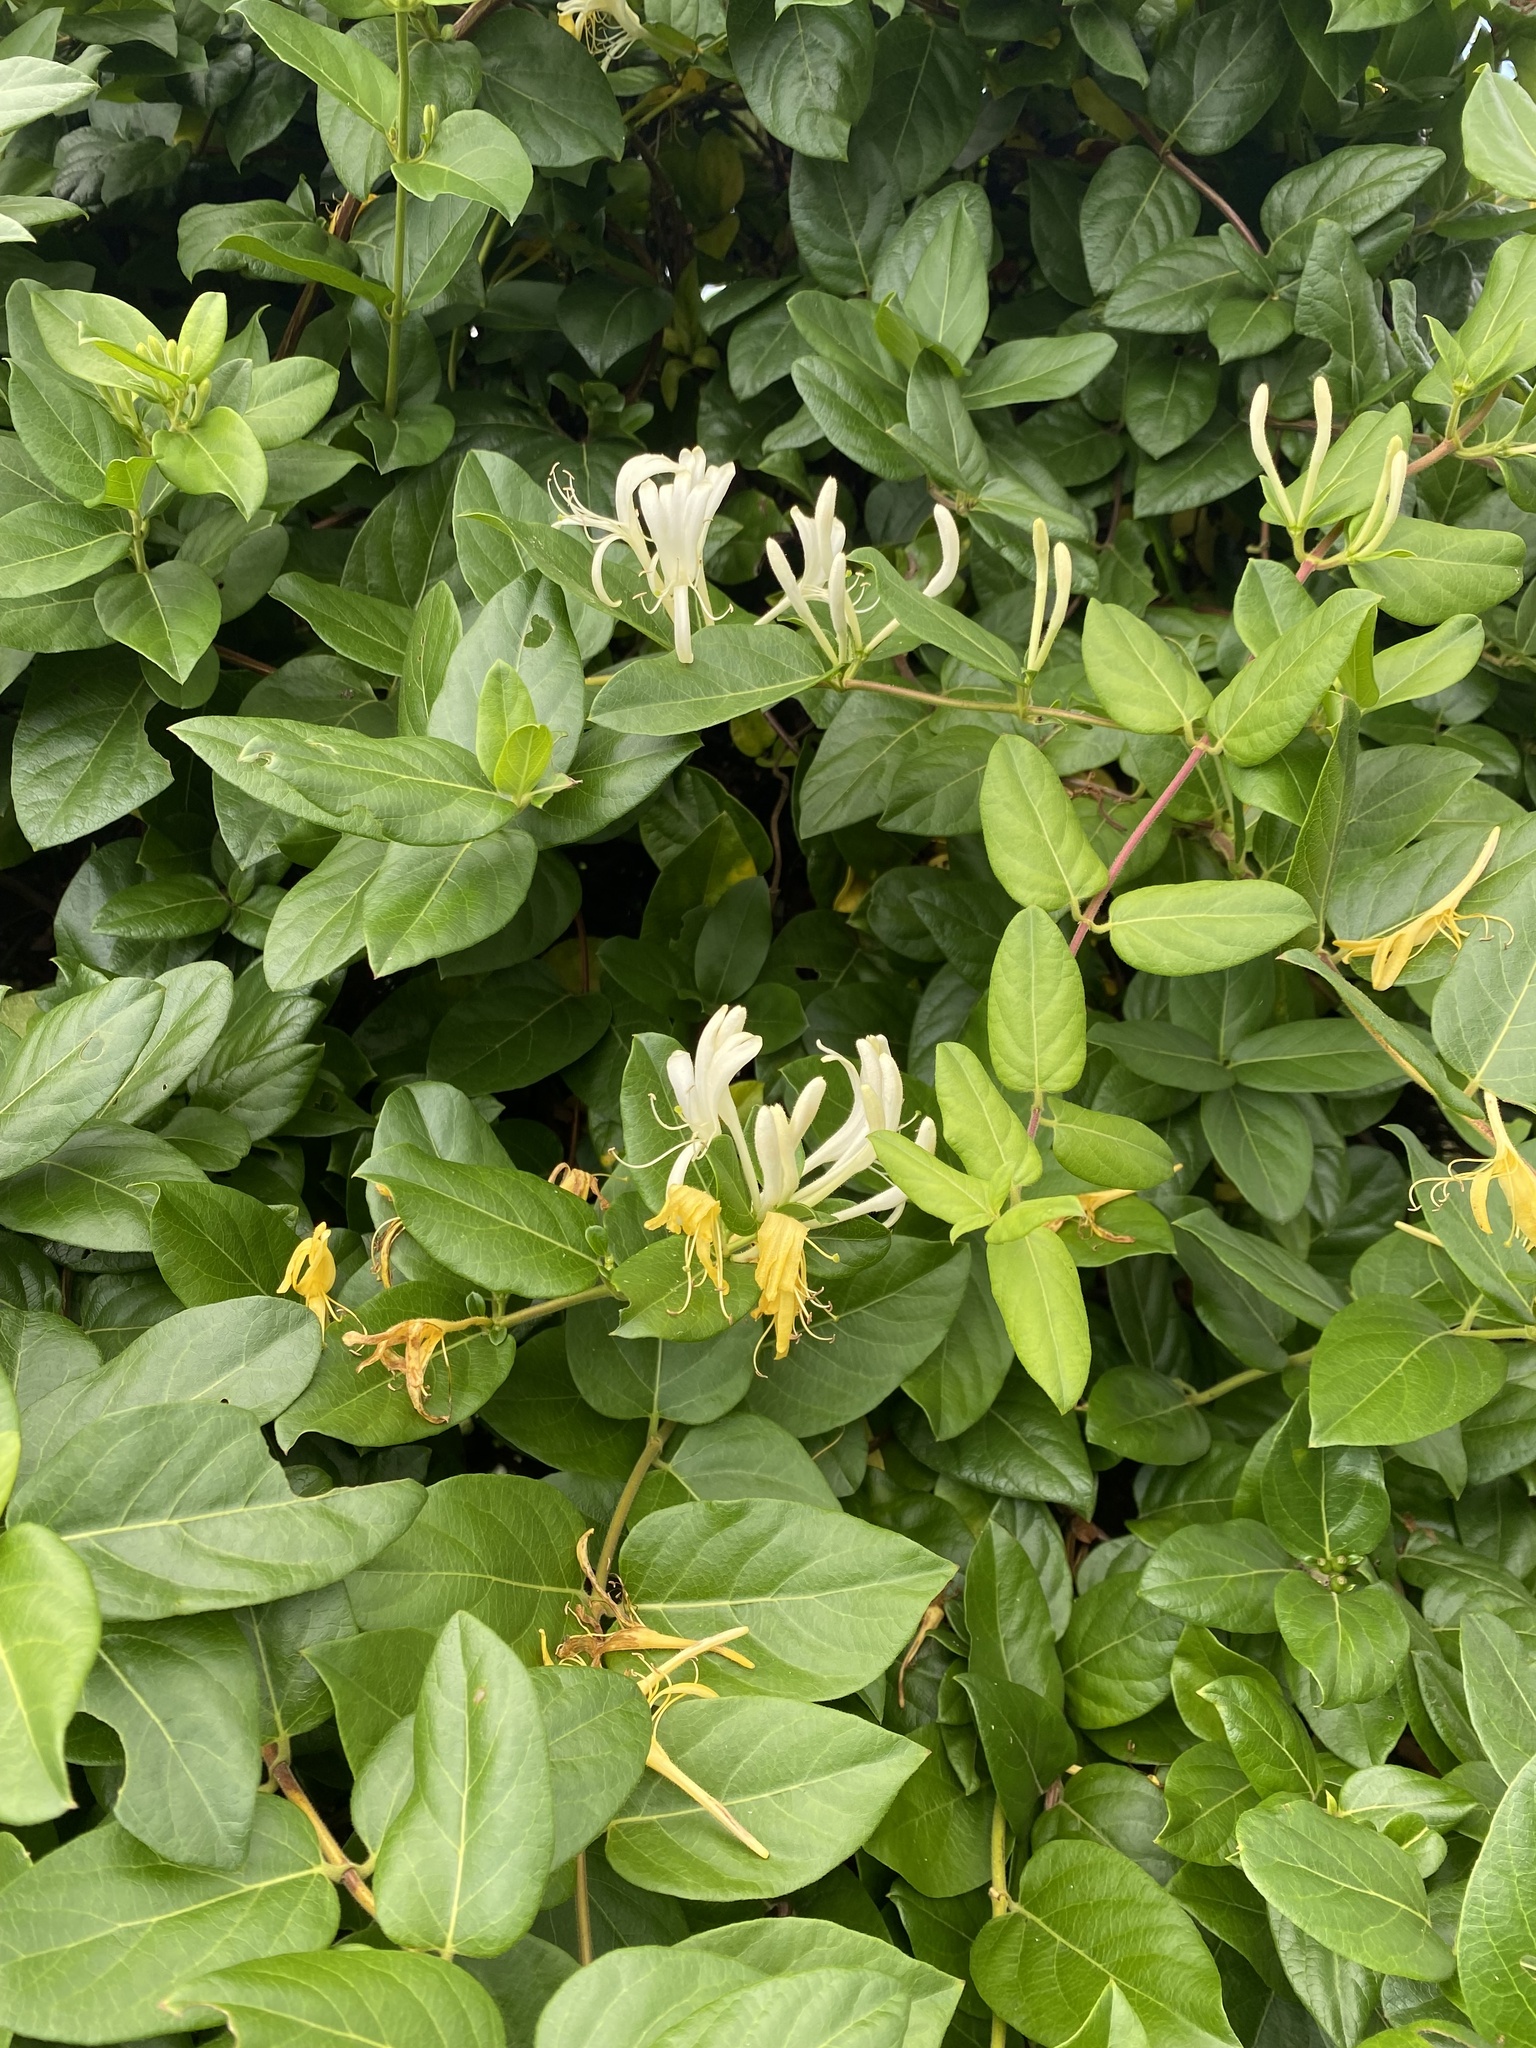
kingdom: Plantae
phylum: Tracheophyta
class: Magnoliopsida
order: Dipsacales
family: Caprifoliaceae
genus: Lonicera
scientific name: Lonicera japonica
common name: Japanese honeysuckle
